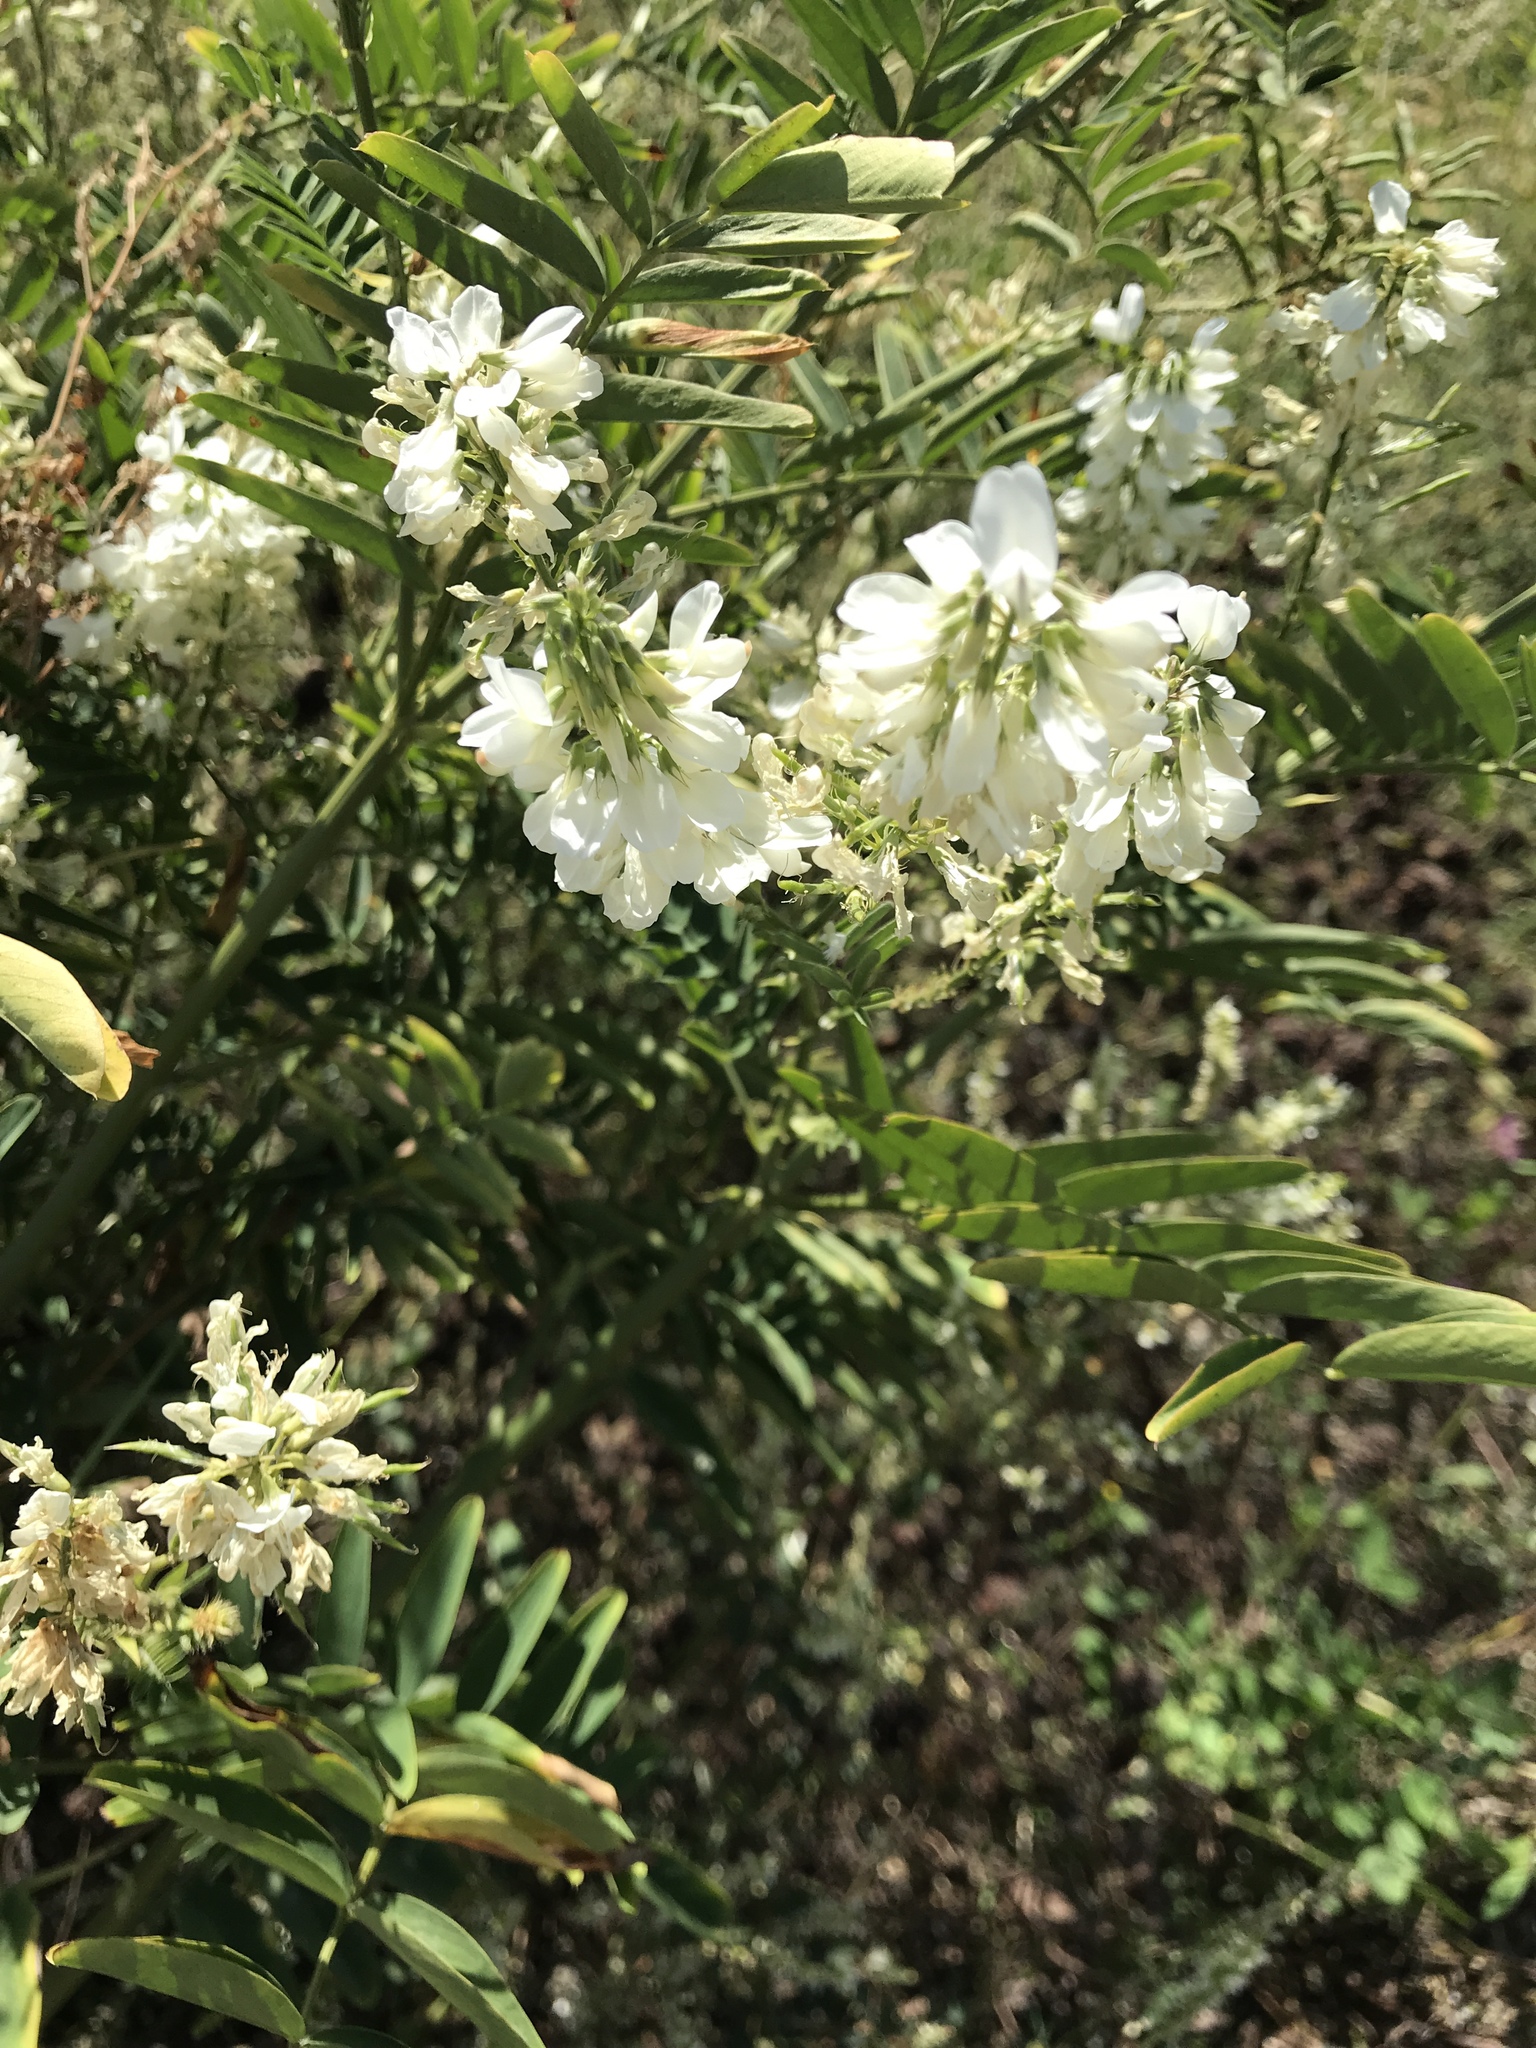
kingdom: Plantae
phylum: Tracheophyta
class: Magnoliopsida
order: Fabales
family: Fabaceae
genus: Galega
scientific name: Galega officinalis
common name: Goat's-rue
